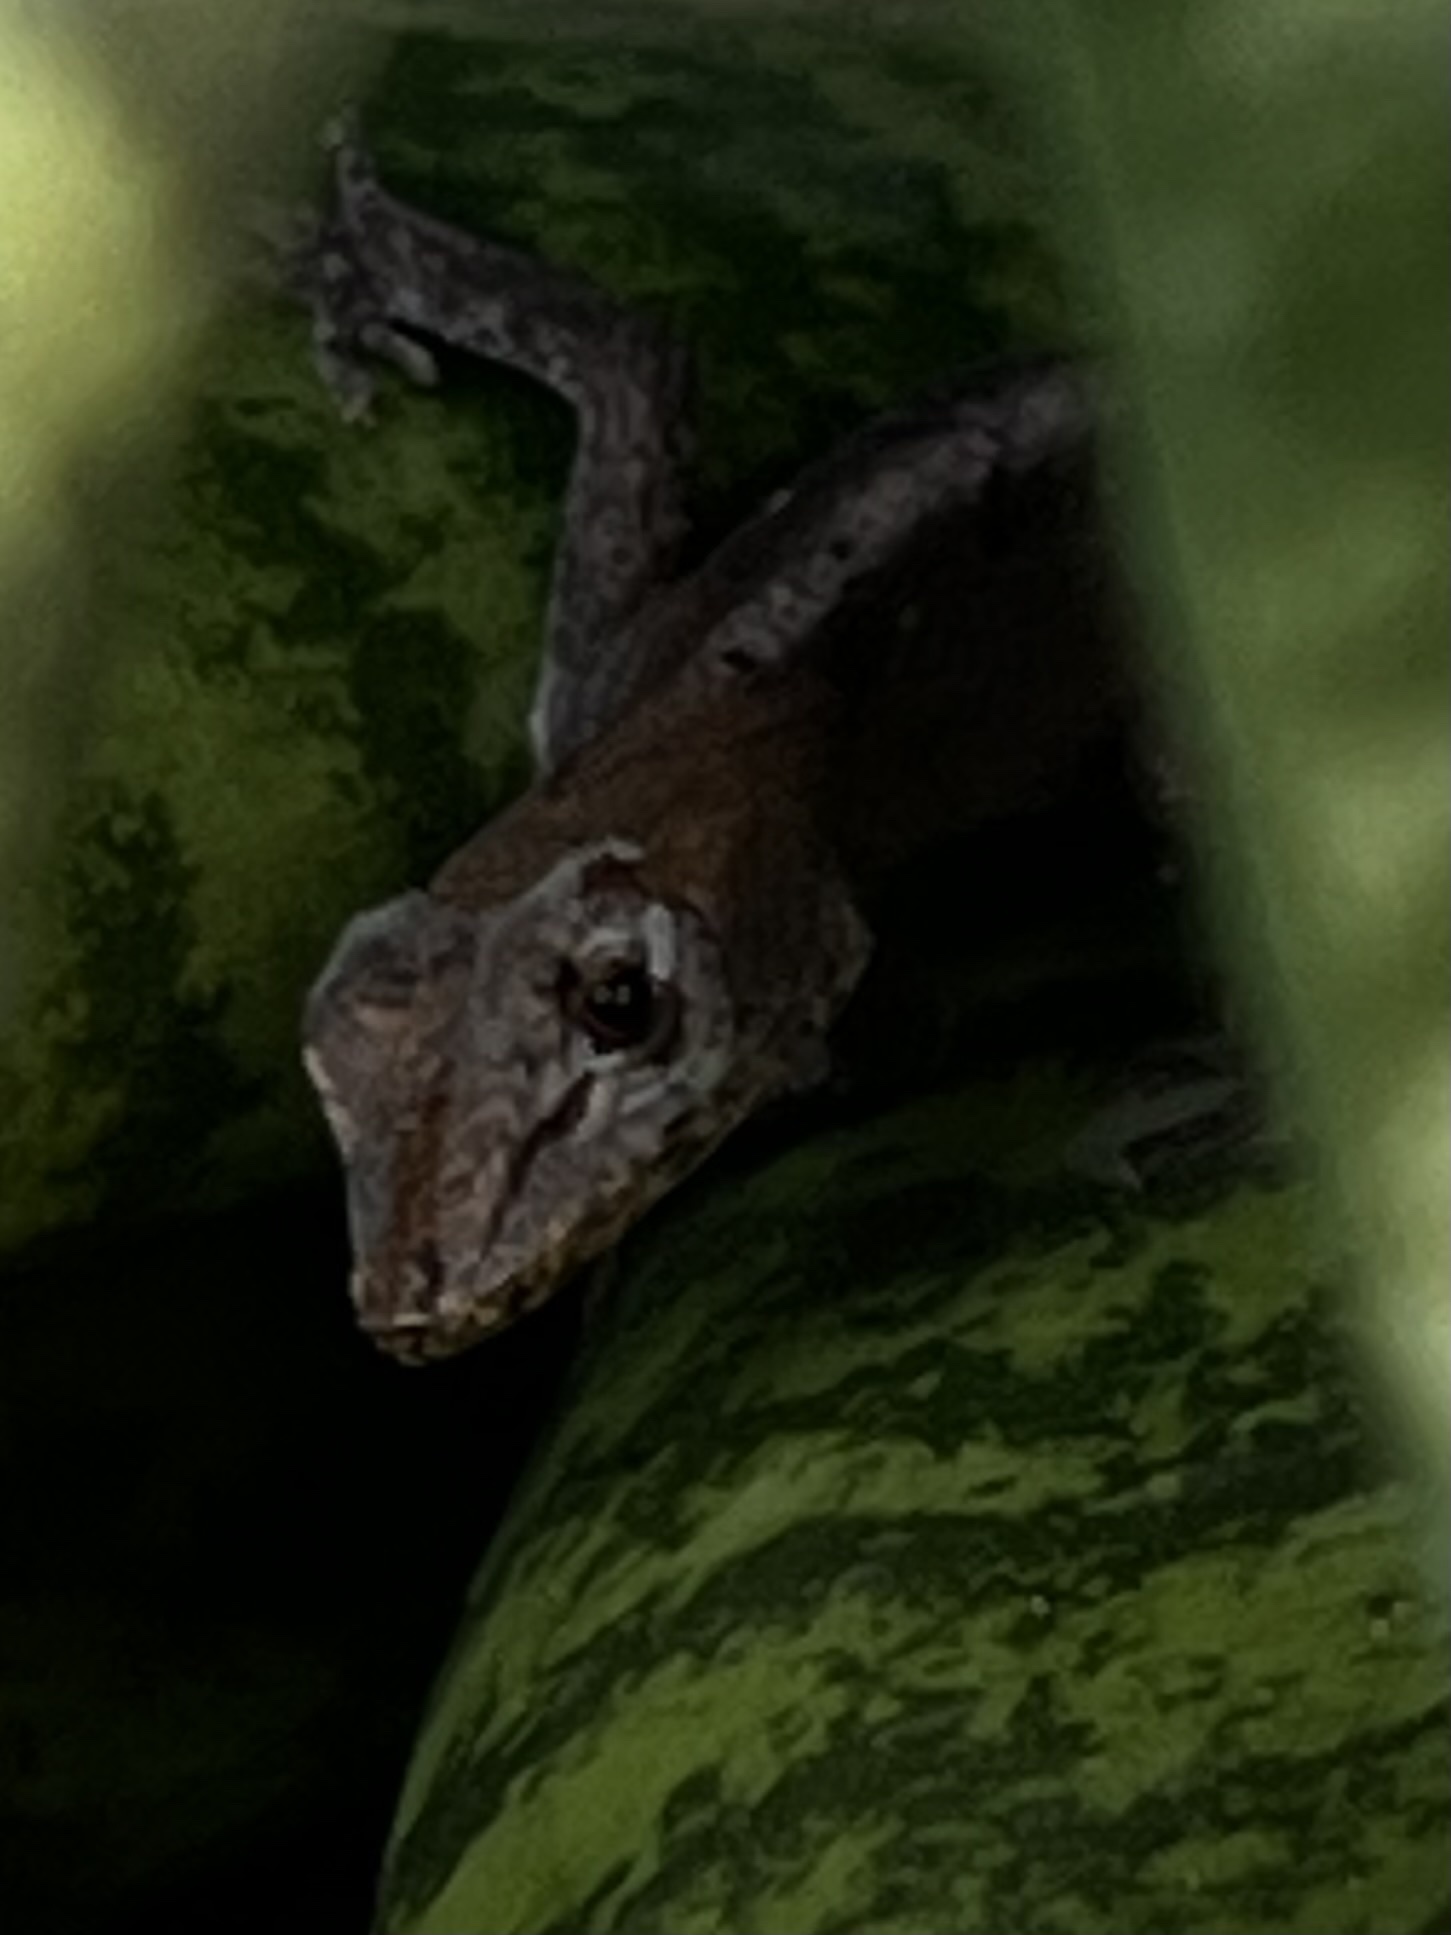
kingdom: Animalia
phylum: Chordata
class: Squamata
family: Dactyloidae
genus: Anolis
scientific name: Anolis sagrei
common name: Brown anole
